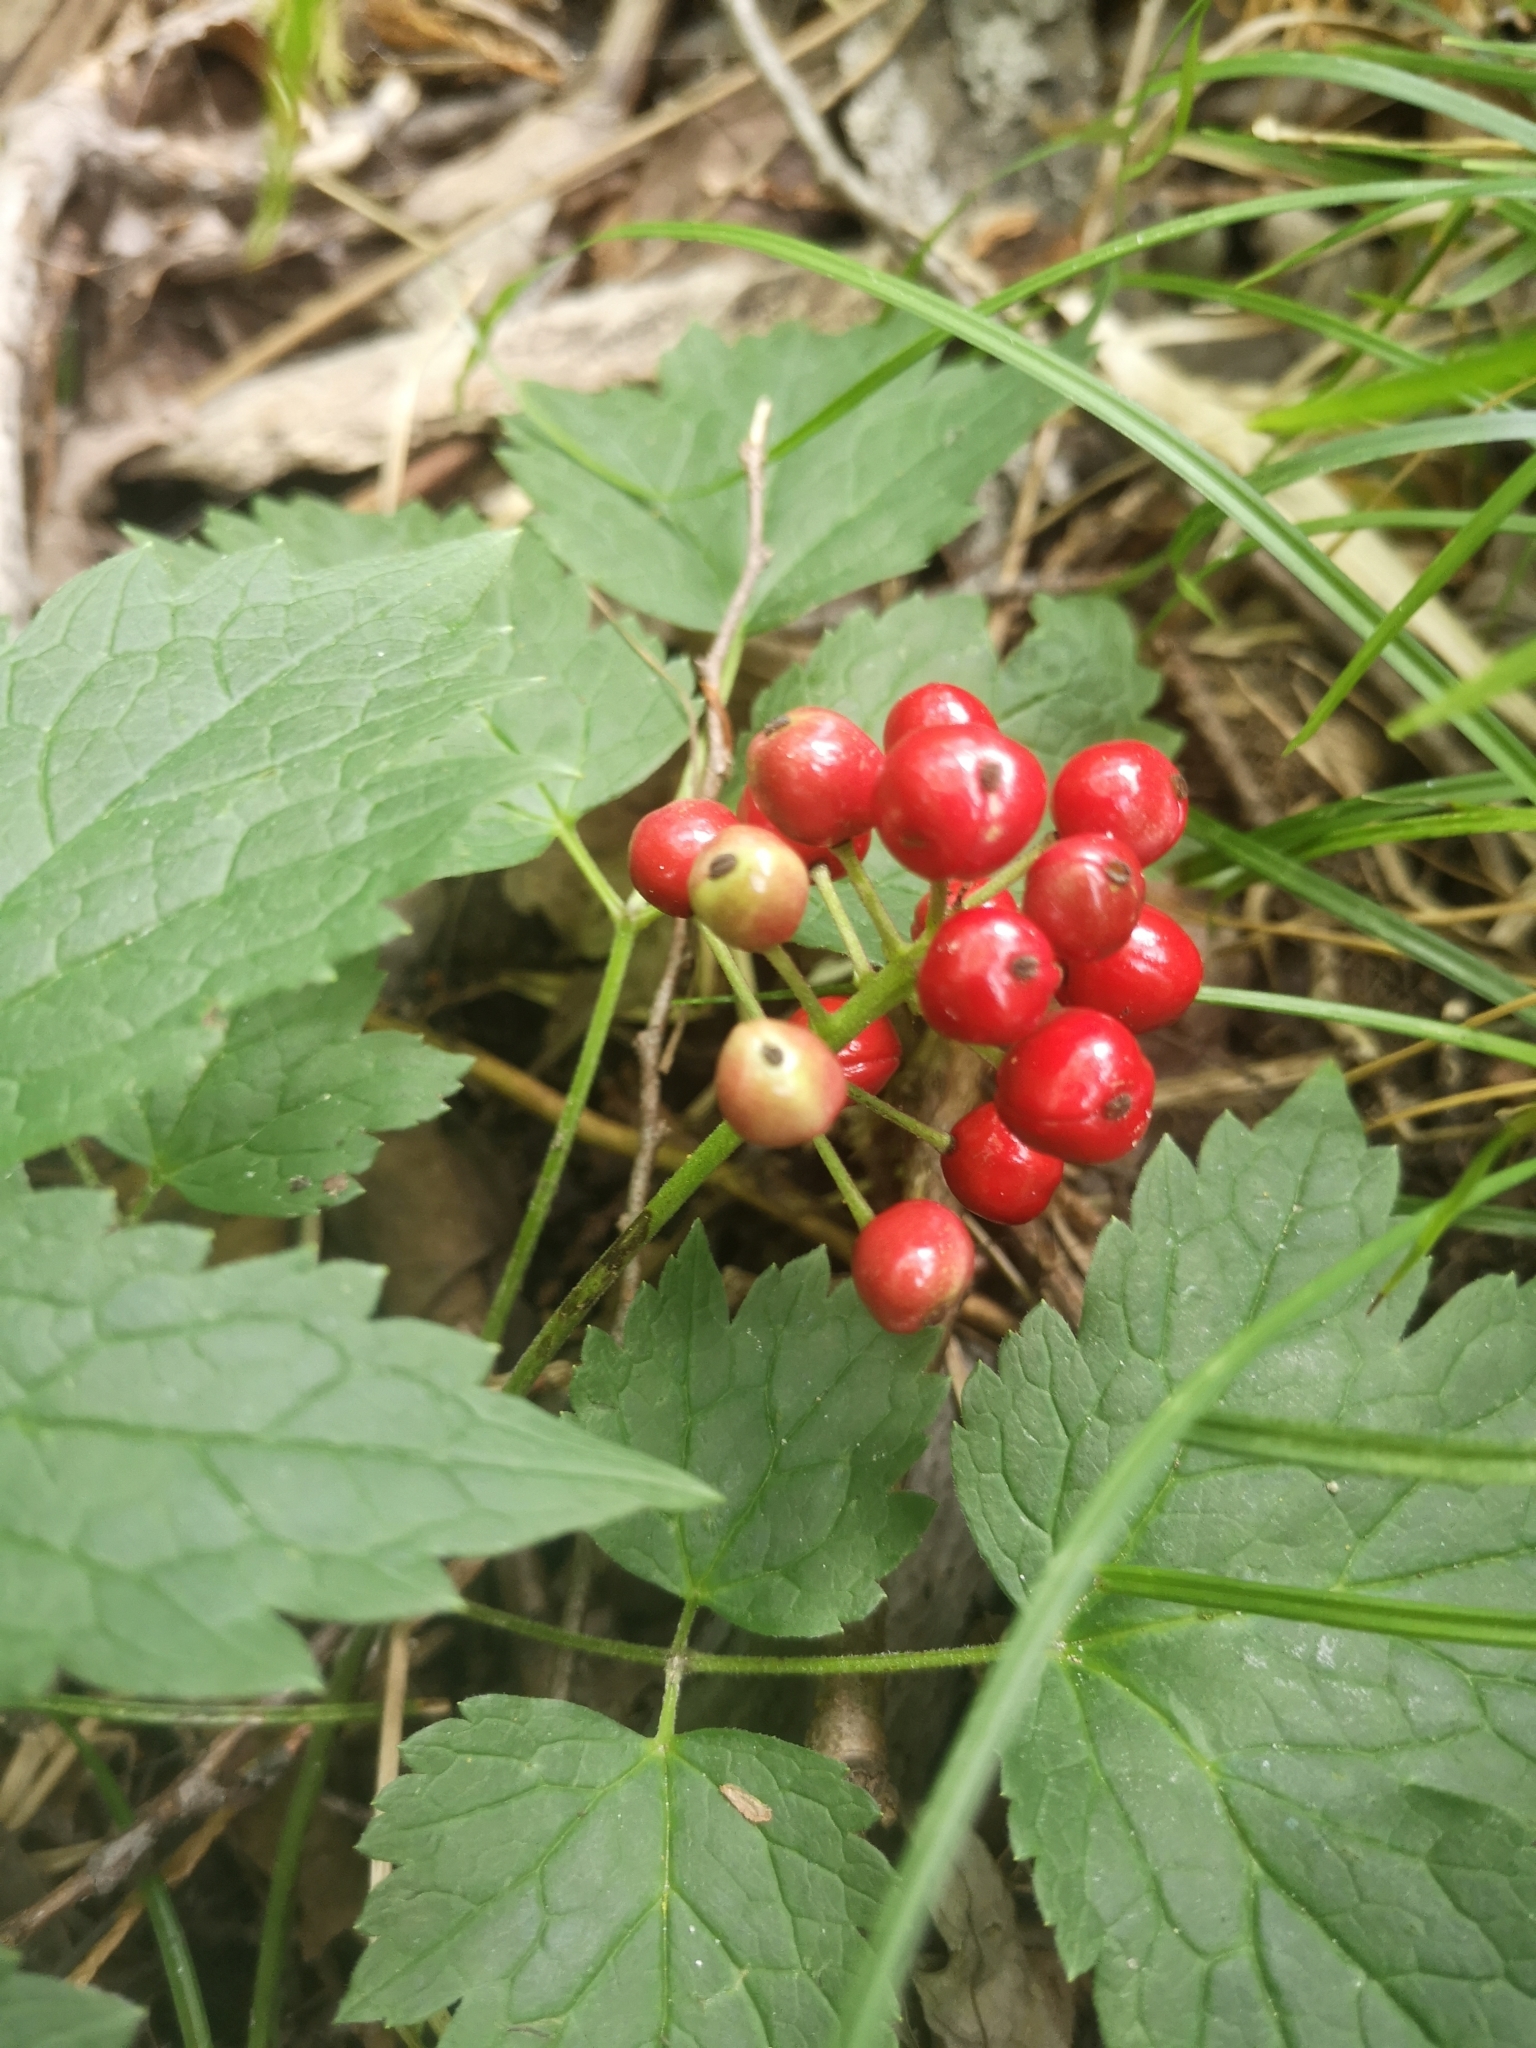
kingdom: Plantae
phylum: Tracheophyta
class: Magnoliopsida
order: Ranunculales
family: Ranunculaceae
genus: Actaea
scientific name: Actaea rubra
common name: Red baneberry
